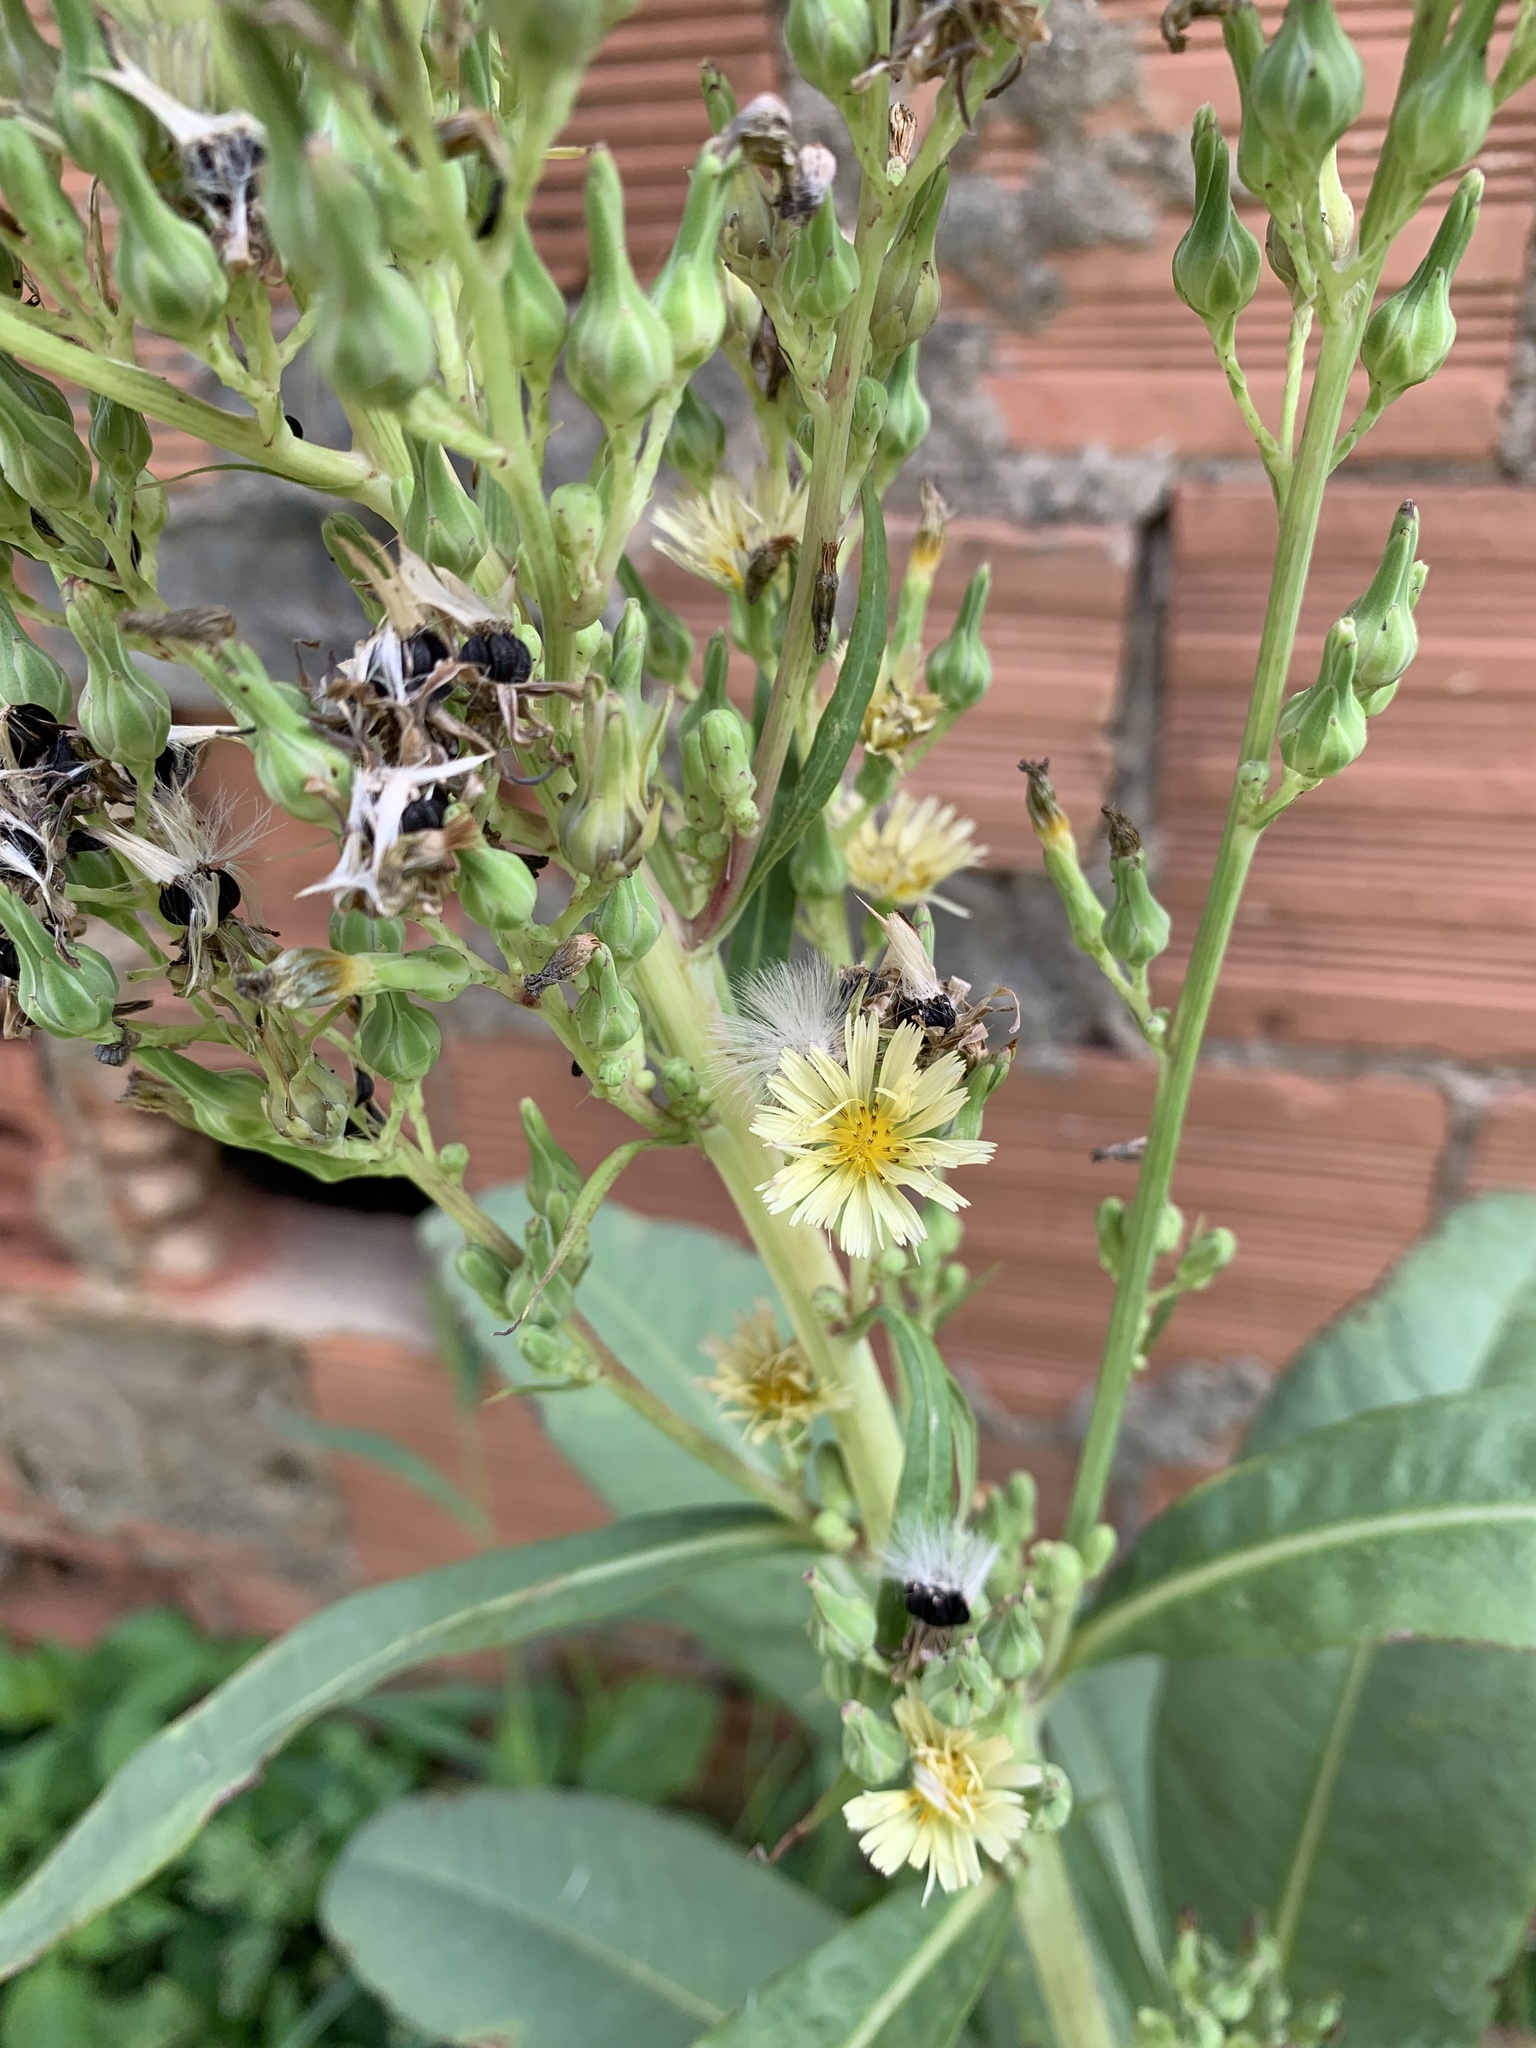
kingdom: Plantae
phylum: Tracheophyta
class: Magnoliopsida
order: Asterales
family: Asteraceae
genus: Lactuca
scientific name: Lactuca indica
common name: Wild lettuce
